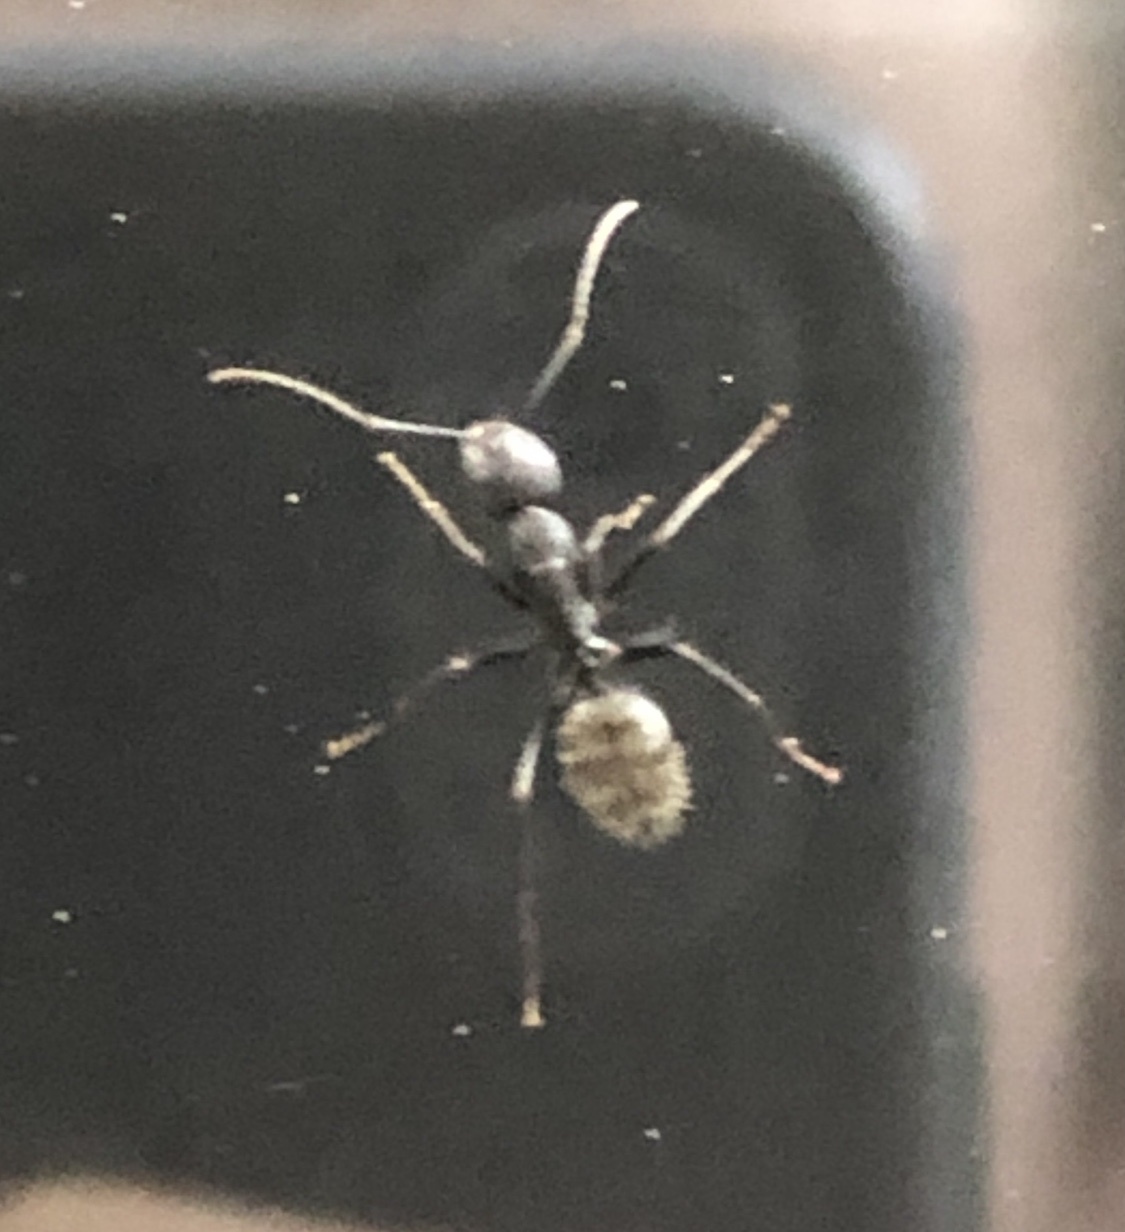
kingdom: Animalia
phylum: Arthropoda
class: Insecta
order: Hymenoptera
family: Formicidae
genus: Camponotus
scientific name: Camponotus pennsylvanicus
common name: Black carpenter ant
